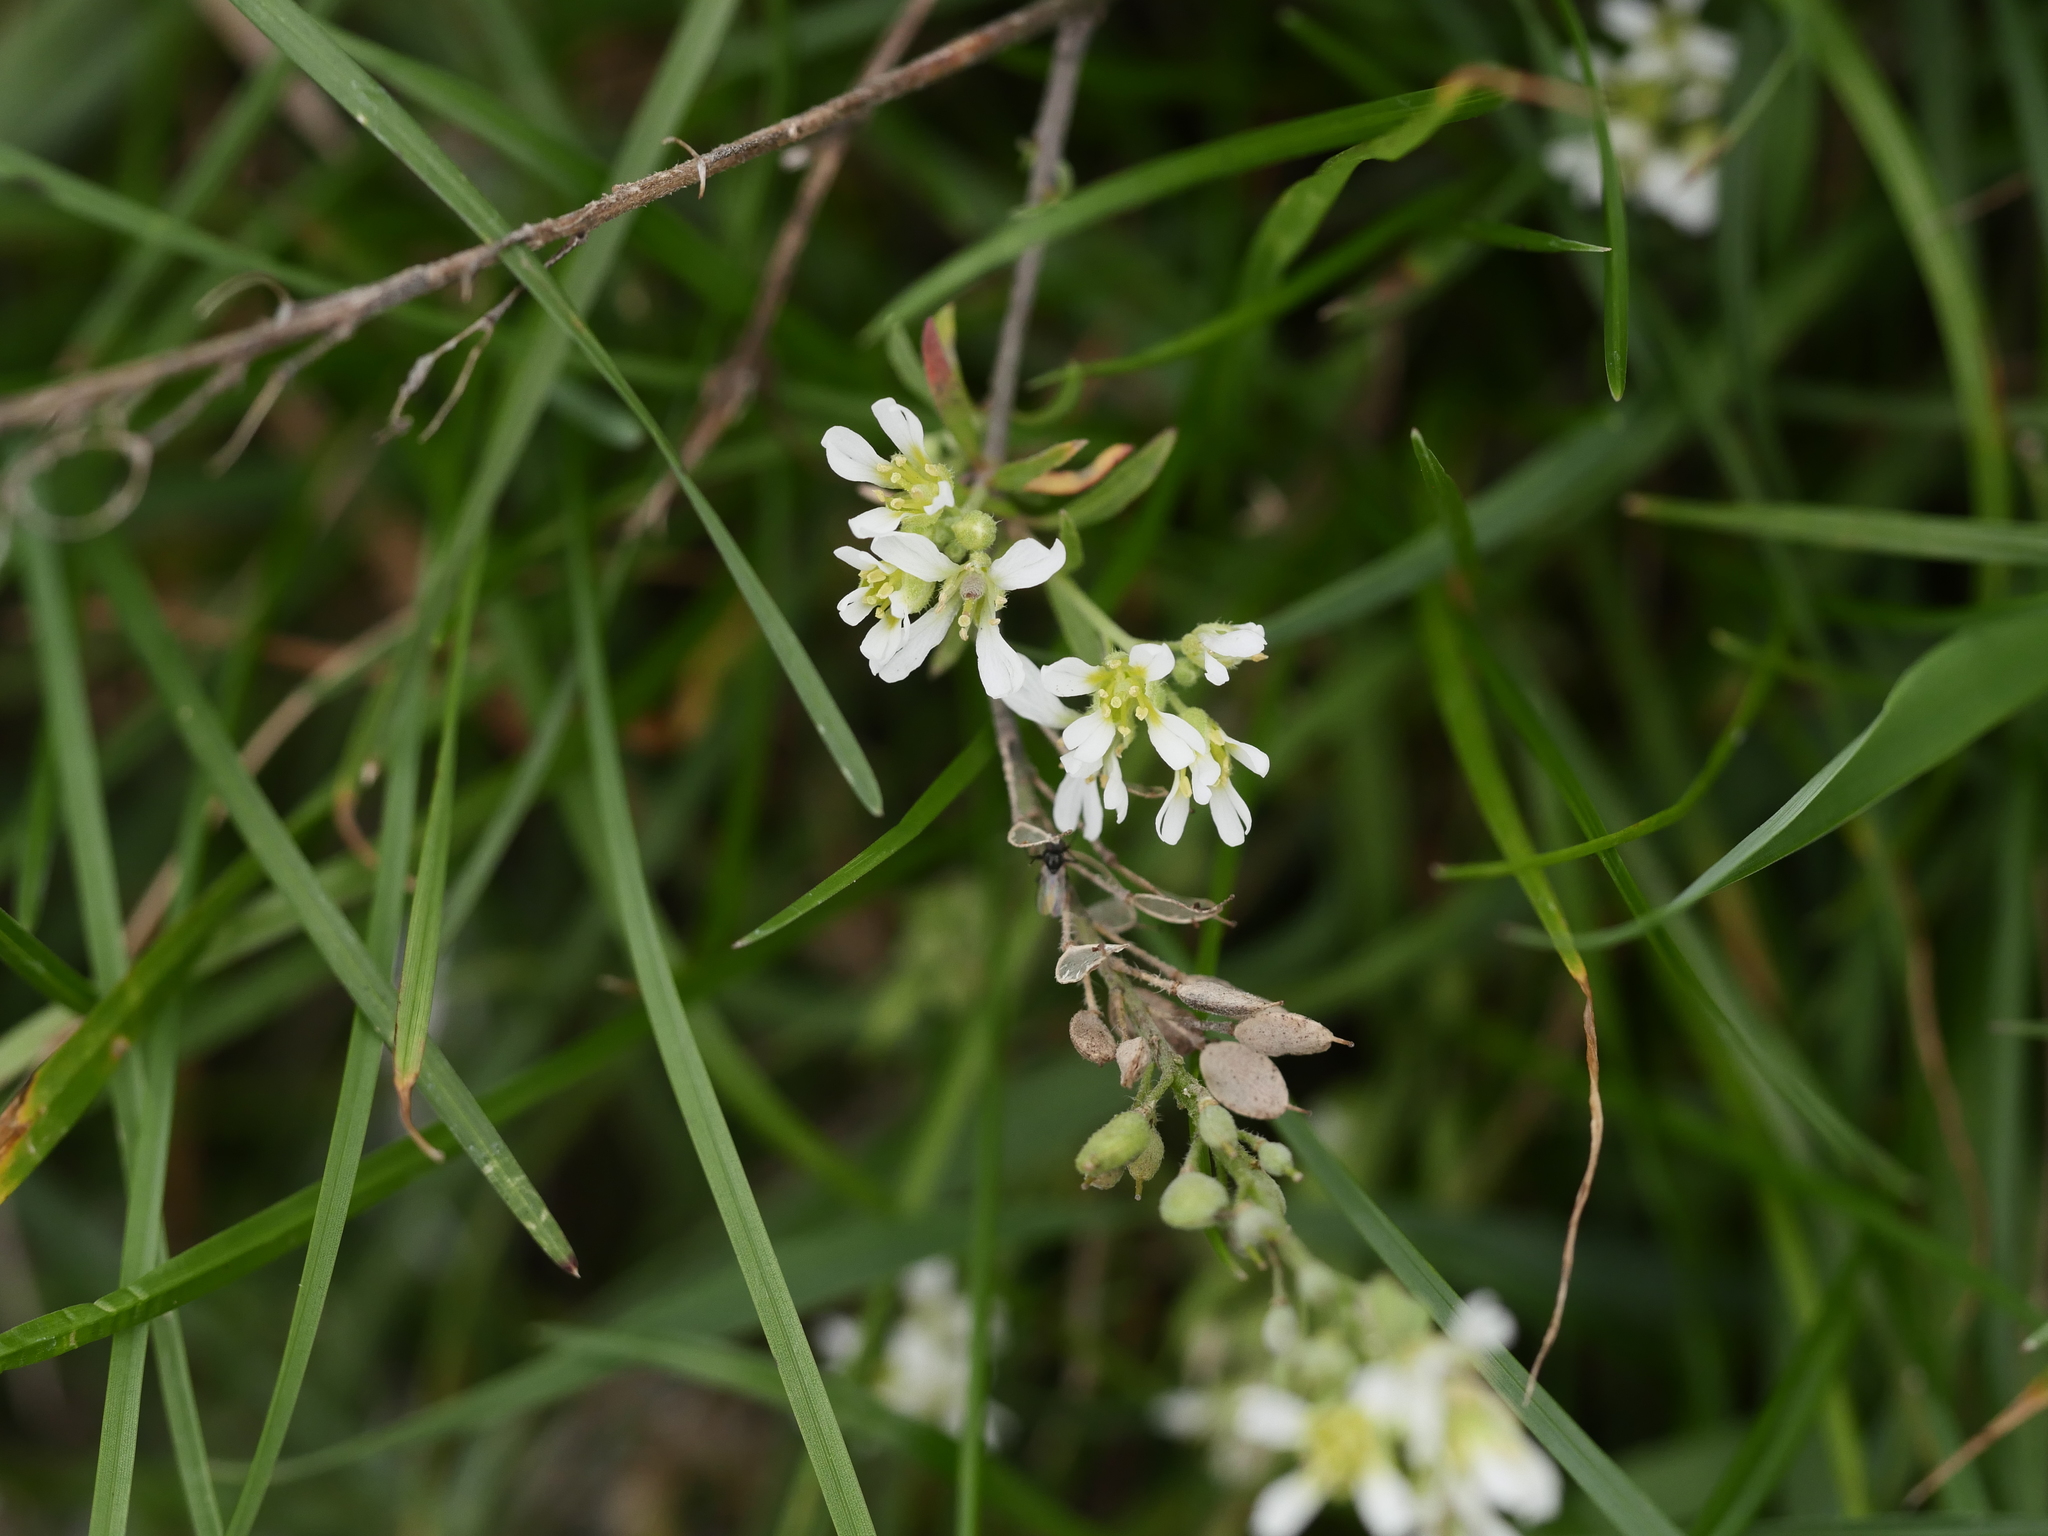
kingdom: Plantae
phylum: Tracheophyta
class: Magnoliopsida
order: Brassicales
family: Brassicaceae
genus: Berteroa
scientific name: Berteroa incana
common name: Hoary alison
